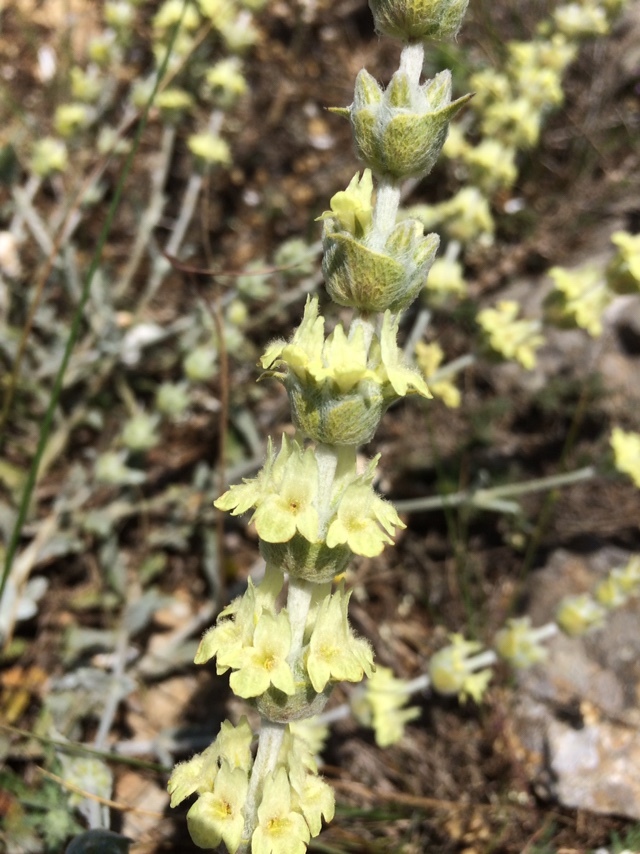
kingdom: Plantae
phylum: Tracheophyta
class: Magnoliopsida
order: Lamiales
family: Lamiaceae
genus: Sideritis
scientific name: Sideritis taurica
